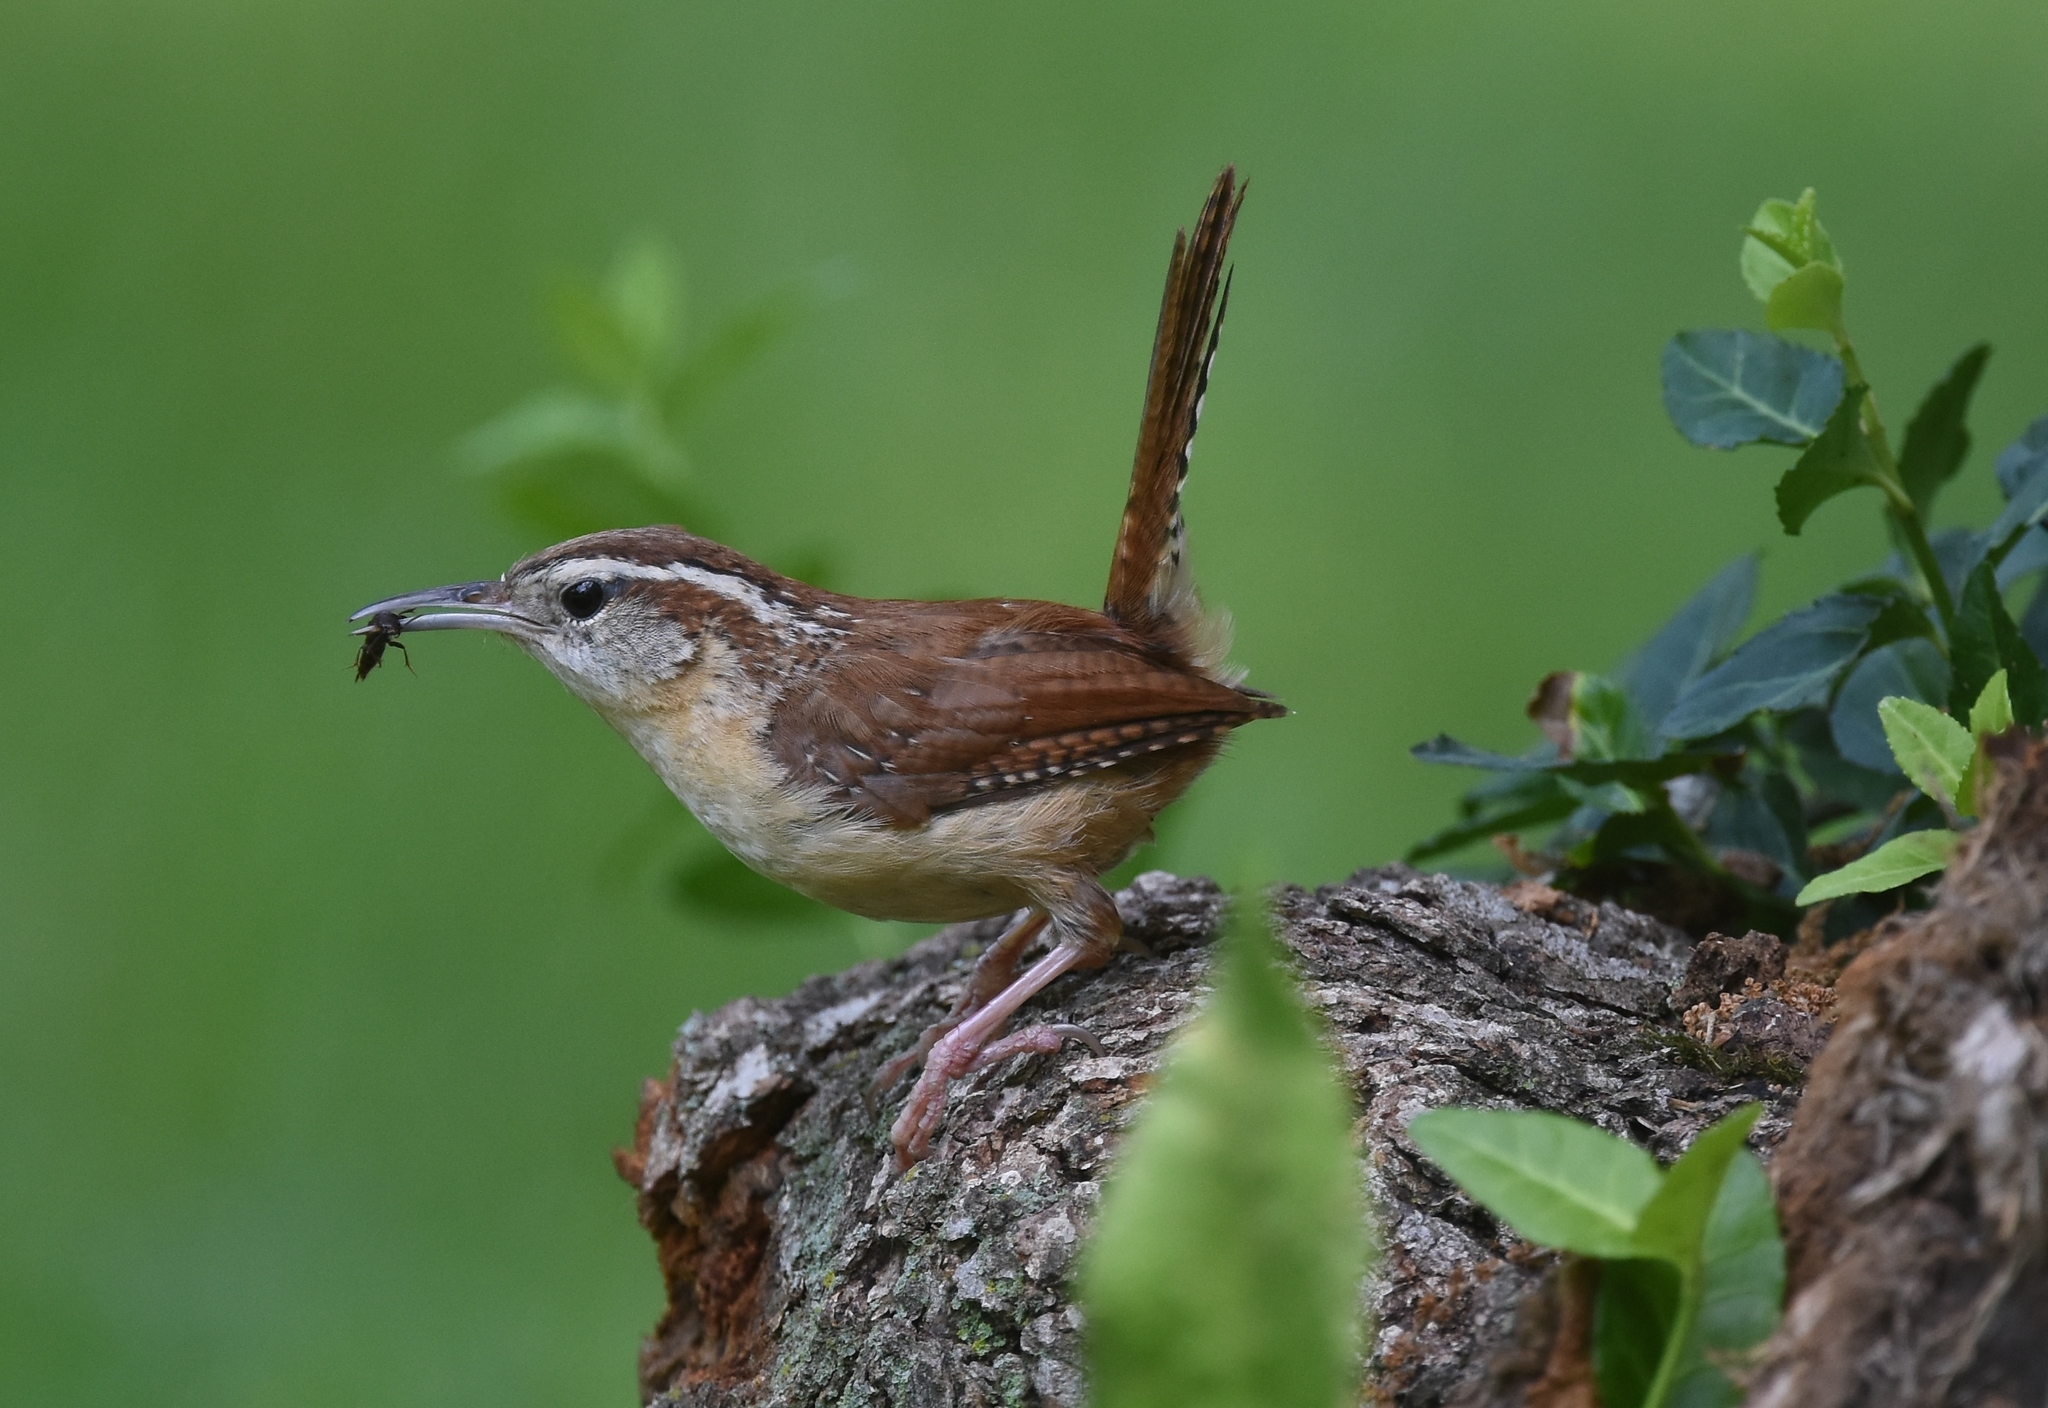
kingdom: Animalia
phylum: Chordata
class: Aves
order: Passeriformes
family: Troglodytidae
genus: Thryothorus
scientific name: Thryothorus ludovicianus
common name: Carolina wren
